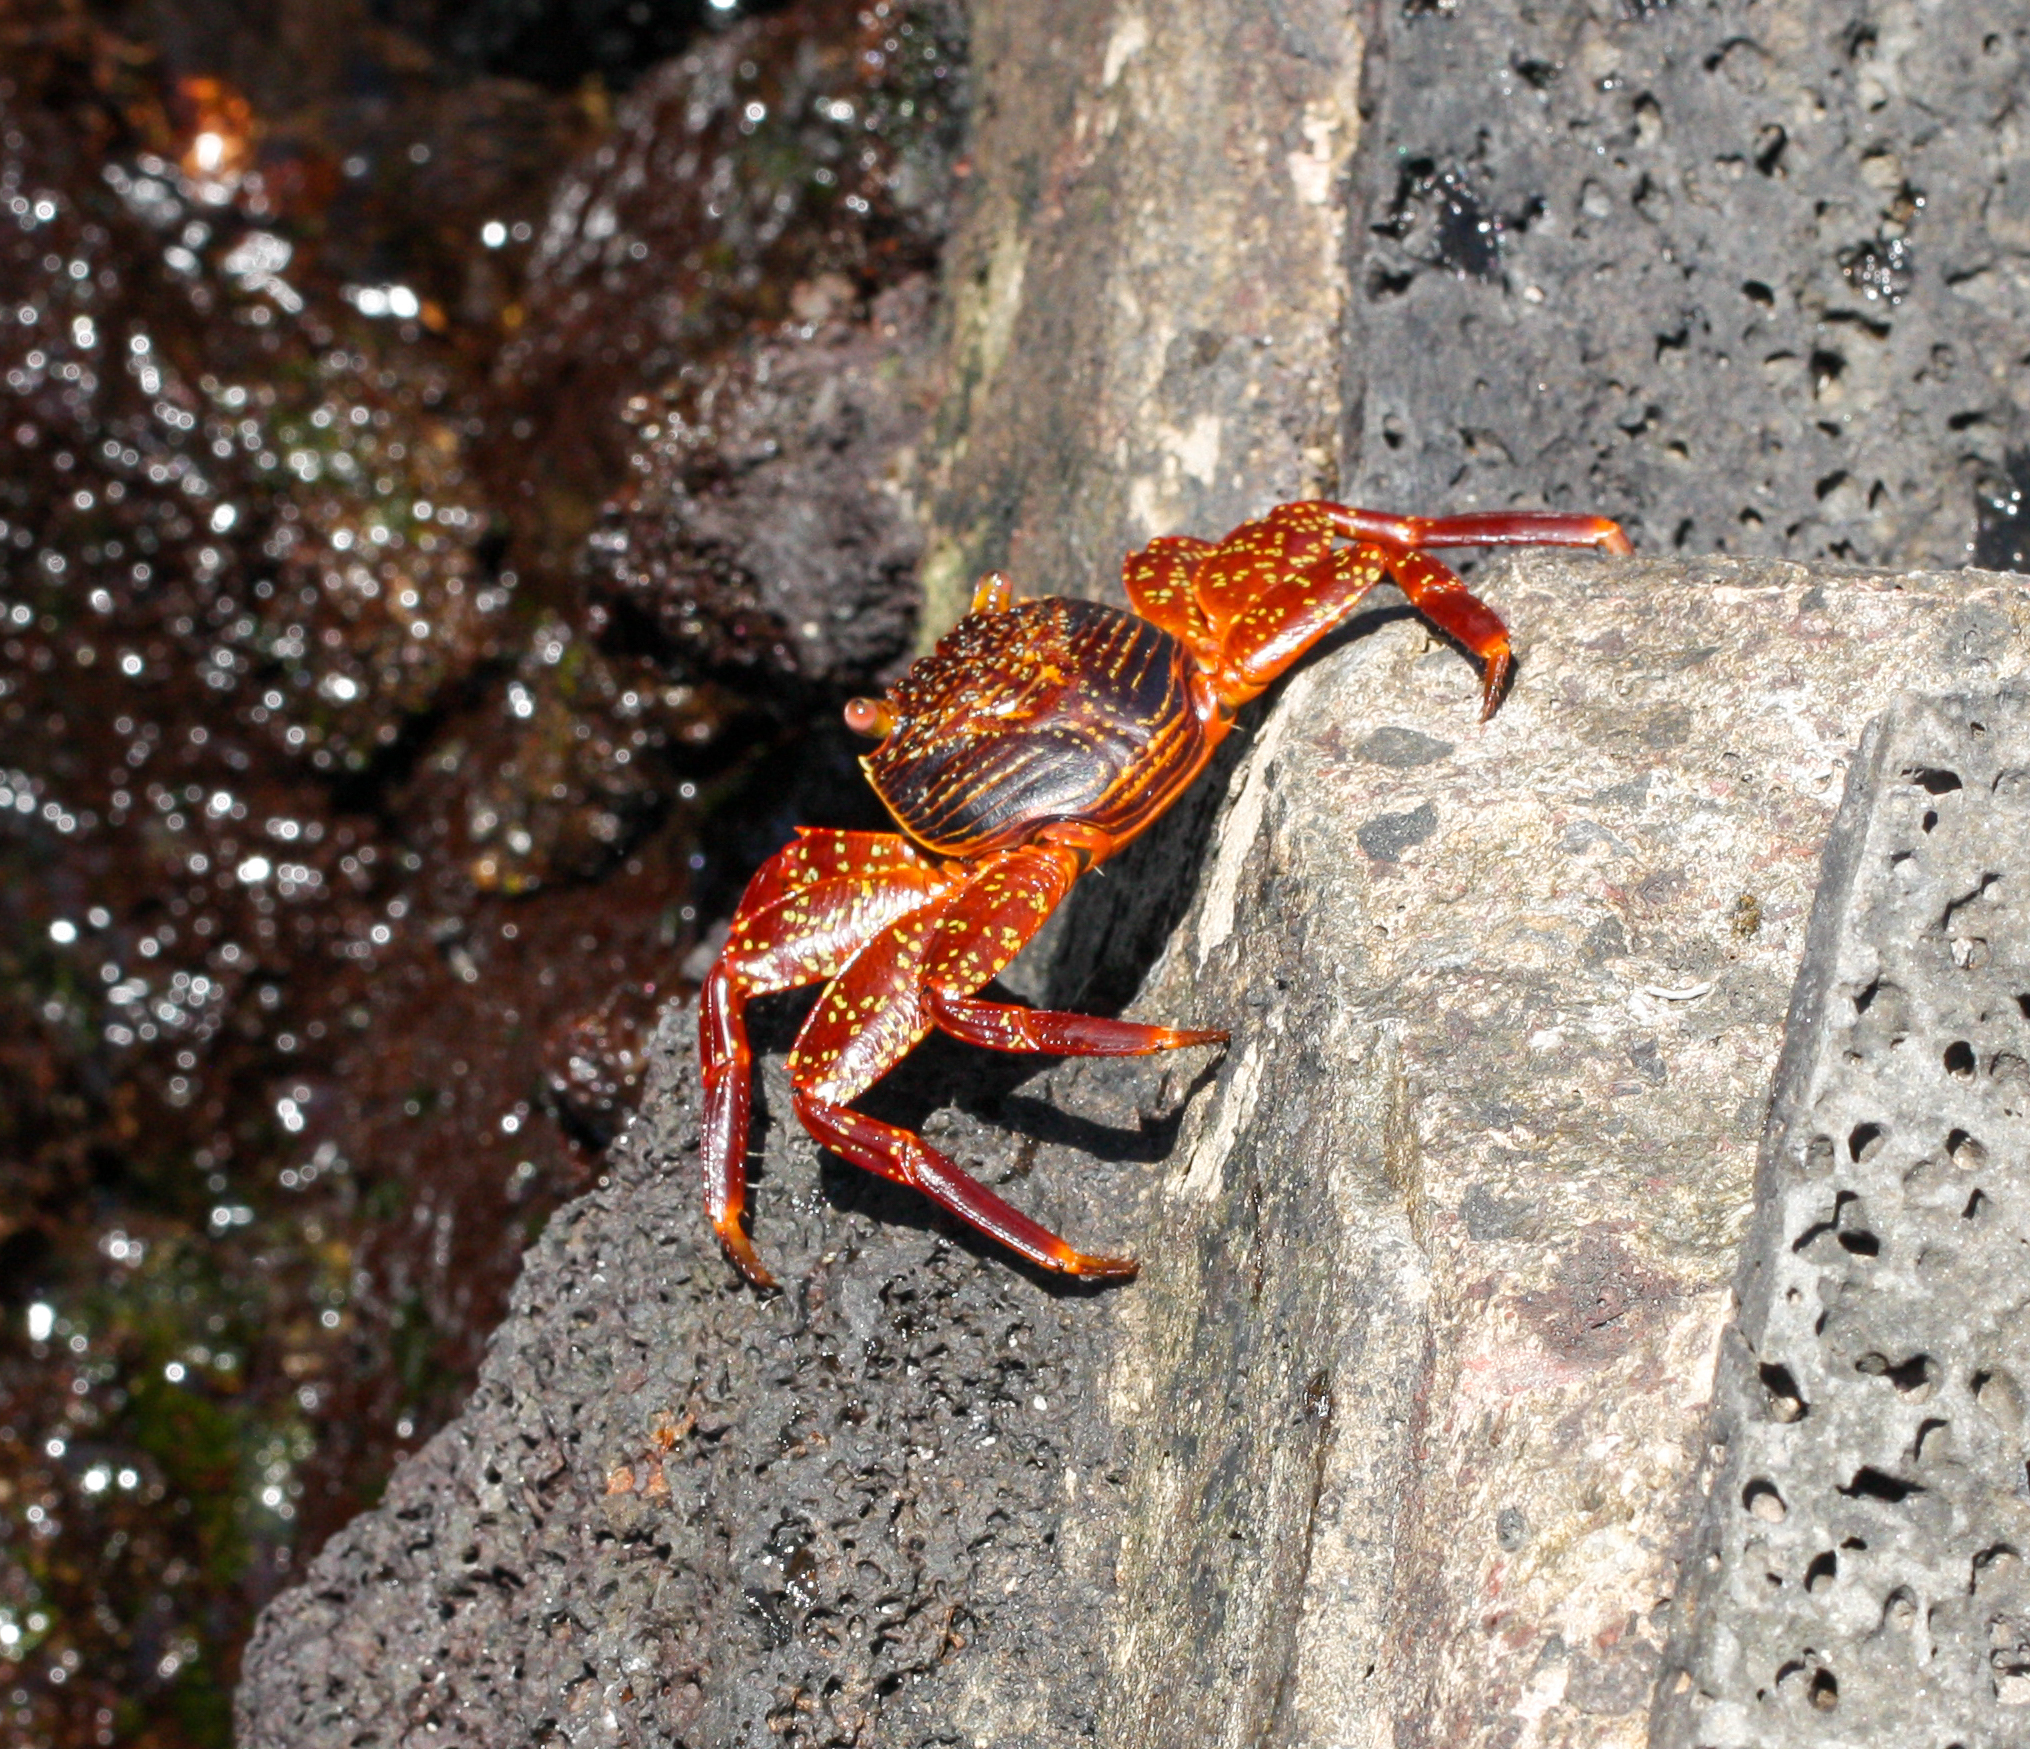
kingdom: Animalia
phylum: Arthropoda
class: Malacostraca
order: Decapoda
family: Grapsidae
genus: Grapsus
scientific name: Grapsus grapsus
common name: Sally lightfoot
